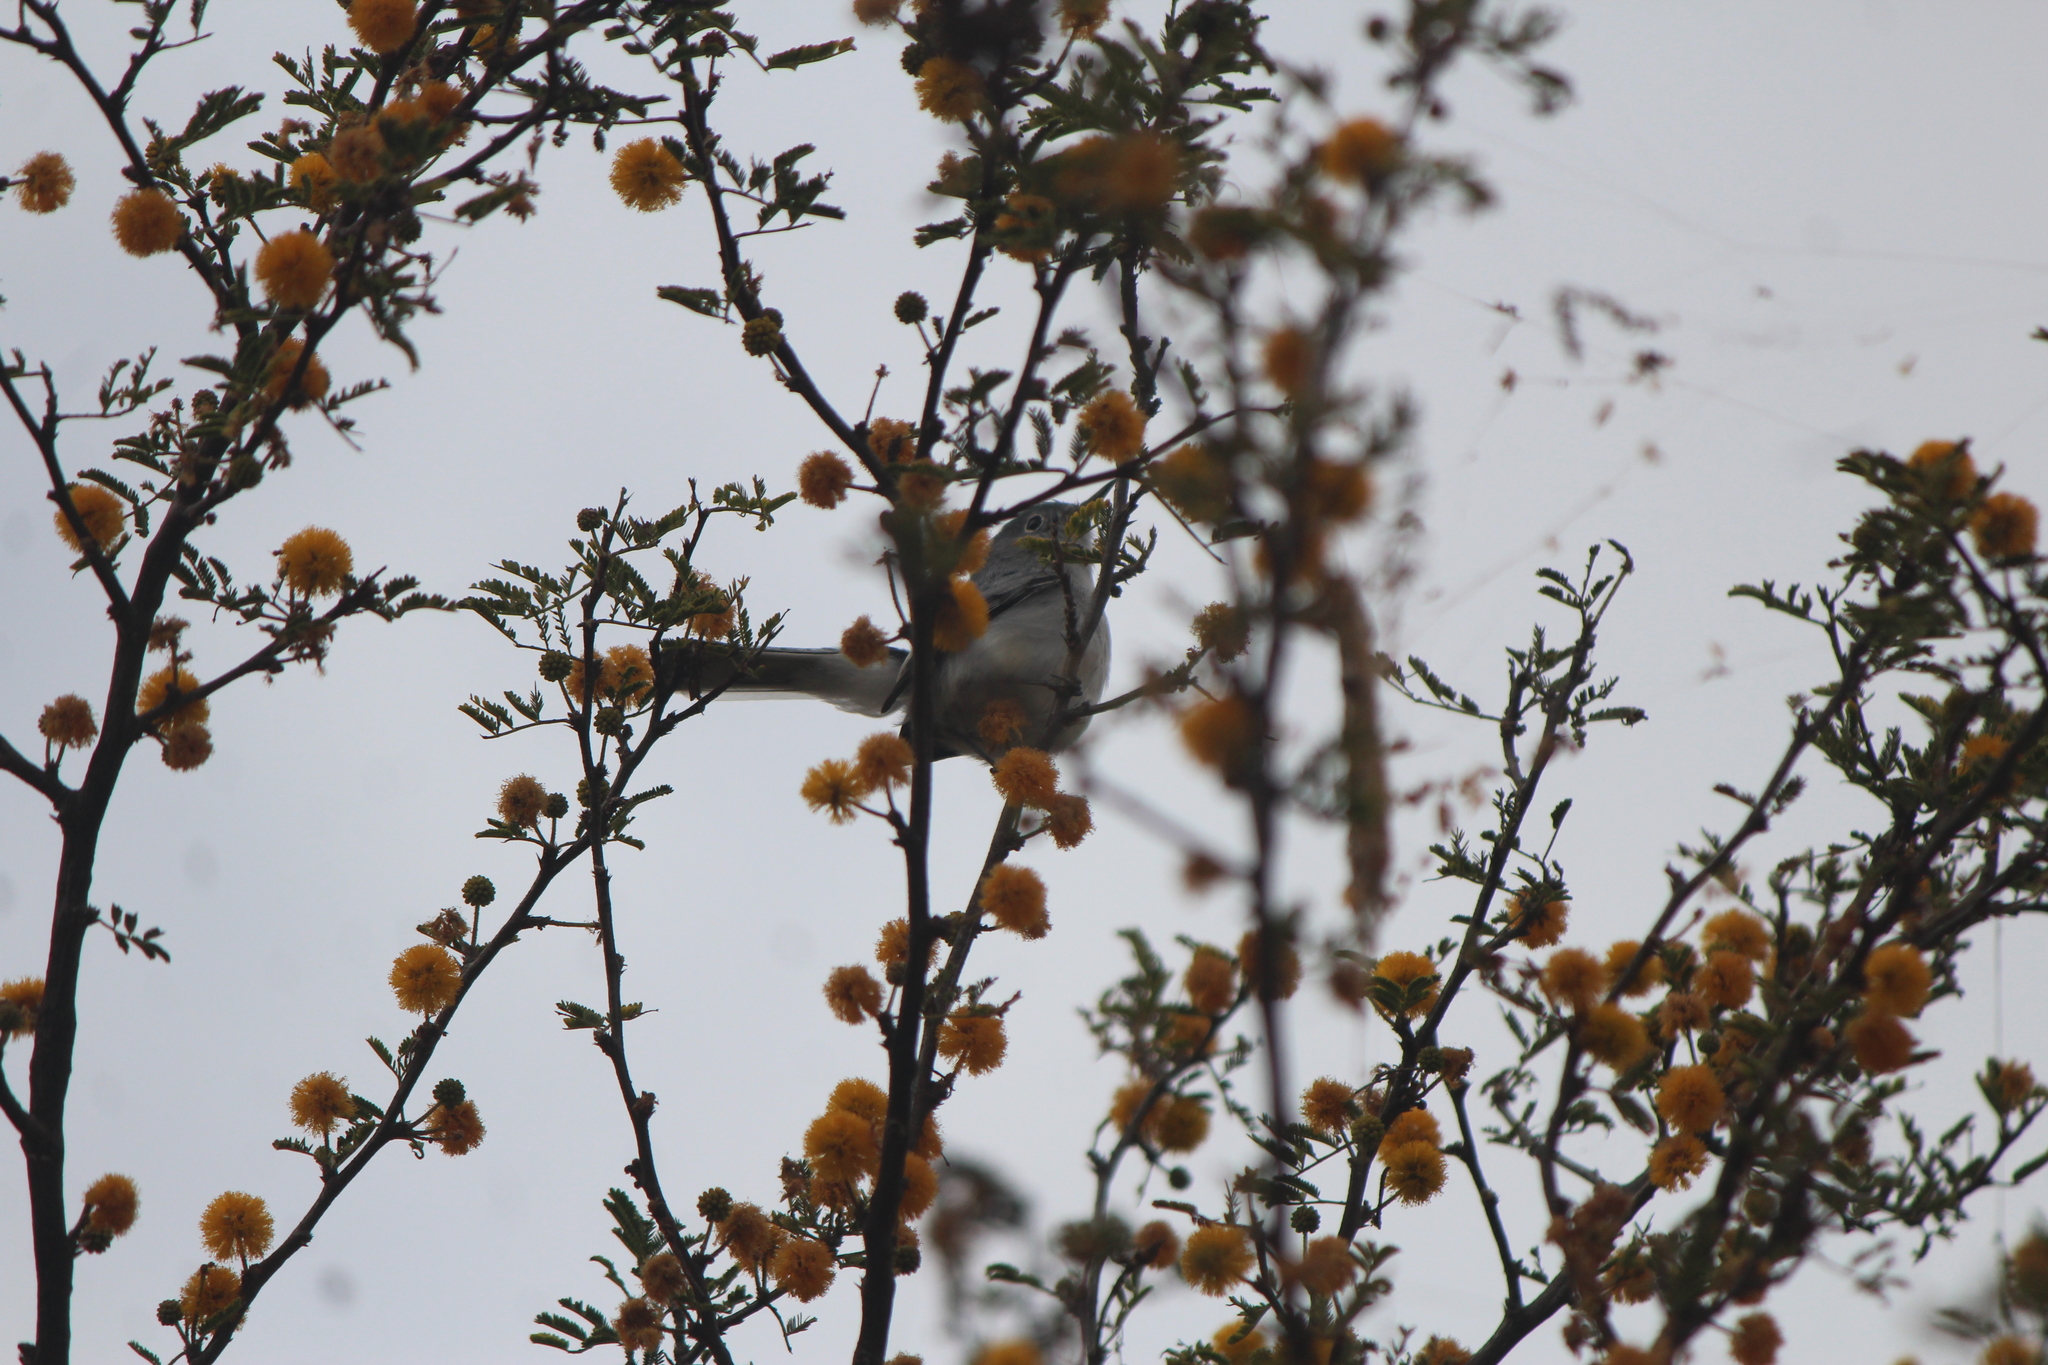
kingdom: Animalia
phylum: Chordata
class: Aves
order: Passeriformes
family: Polioptilidae
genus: Polioptila
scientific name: Polioptila caerulea
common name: Blue-gray gnatcatcher
